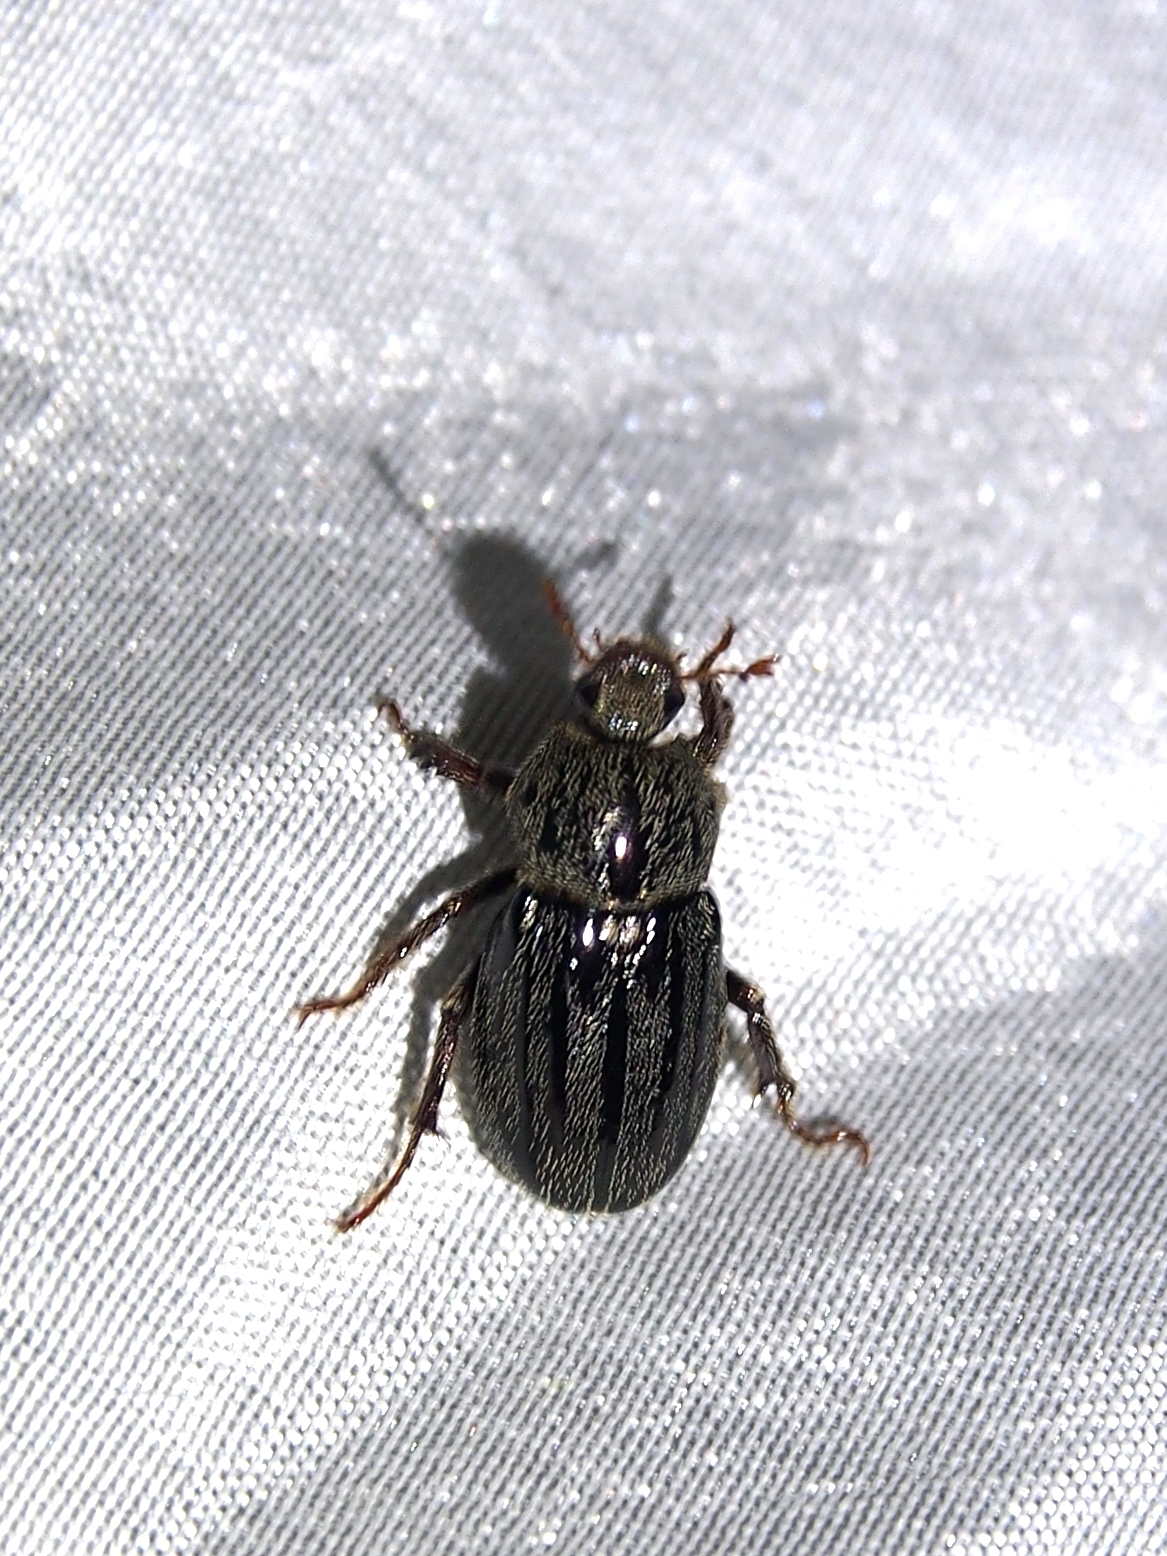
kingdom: Animalia
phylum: Arthropoda
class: Insecta
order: Coleoptera
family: Scarabaeidae
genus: Faula
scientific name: Faula centralis
